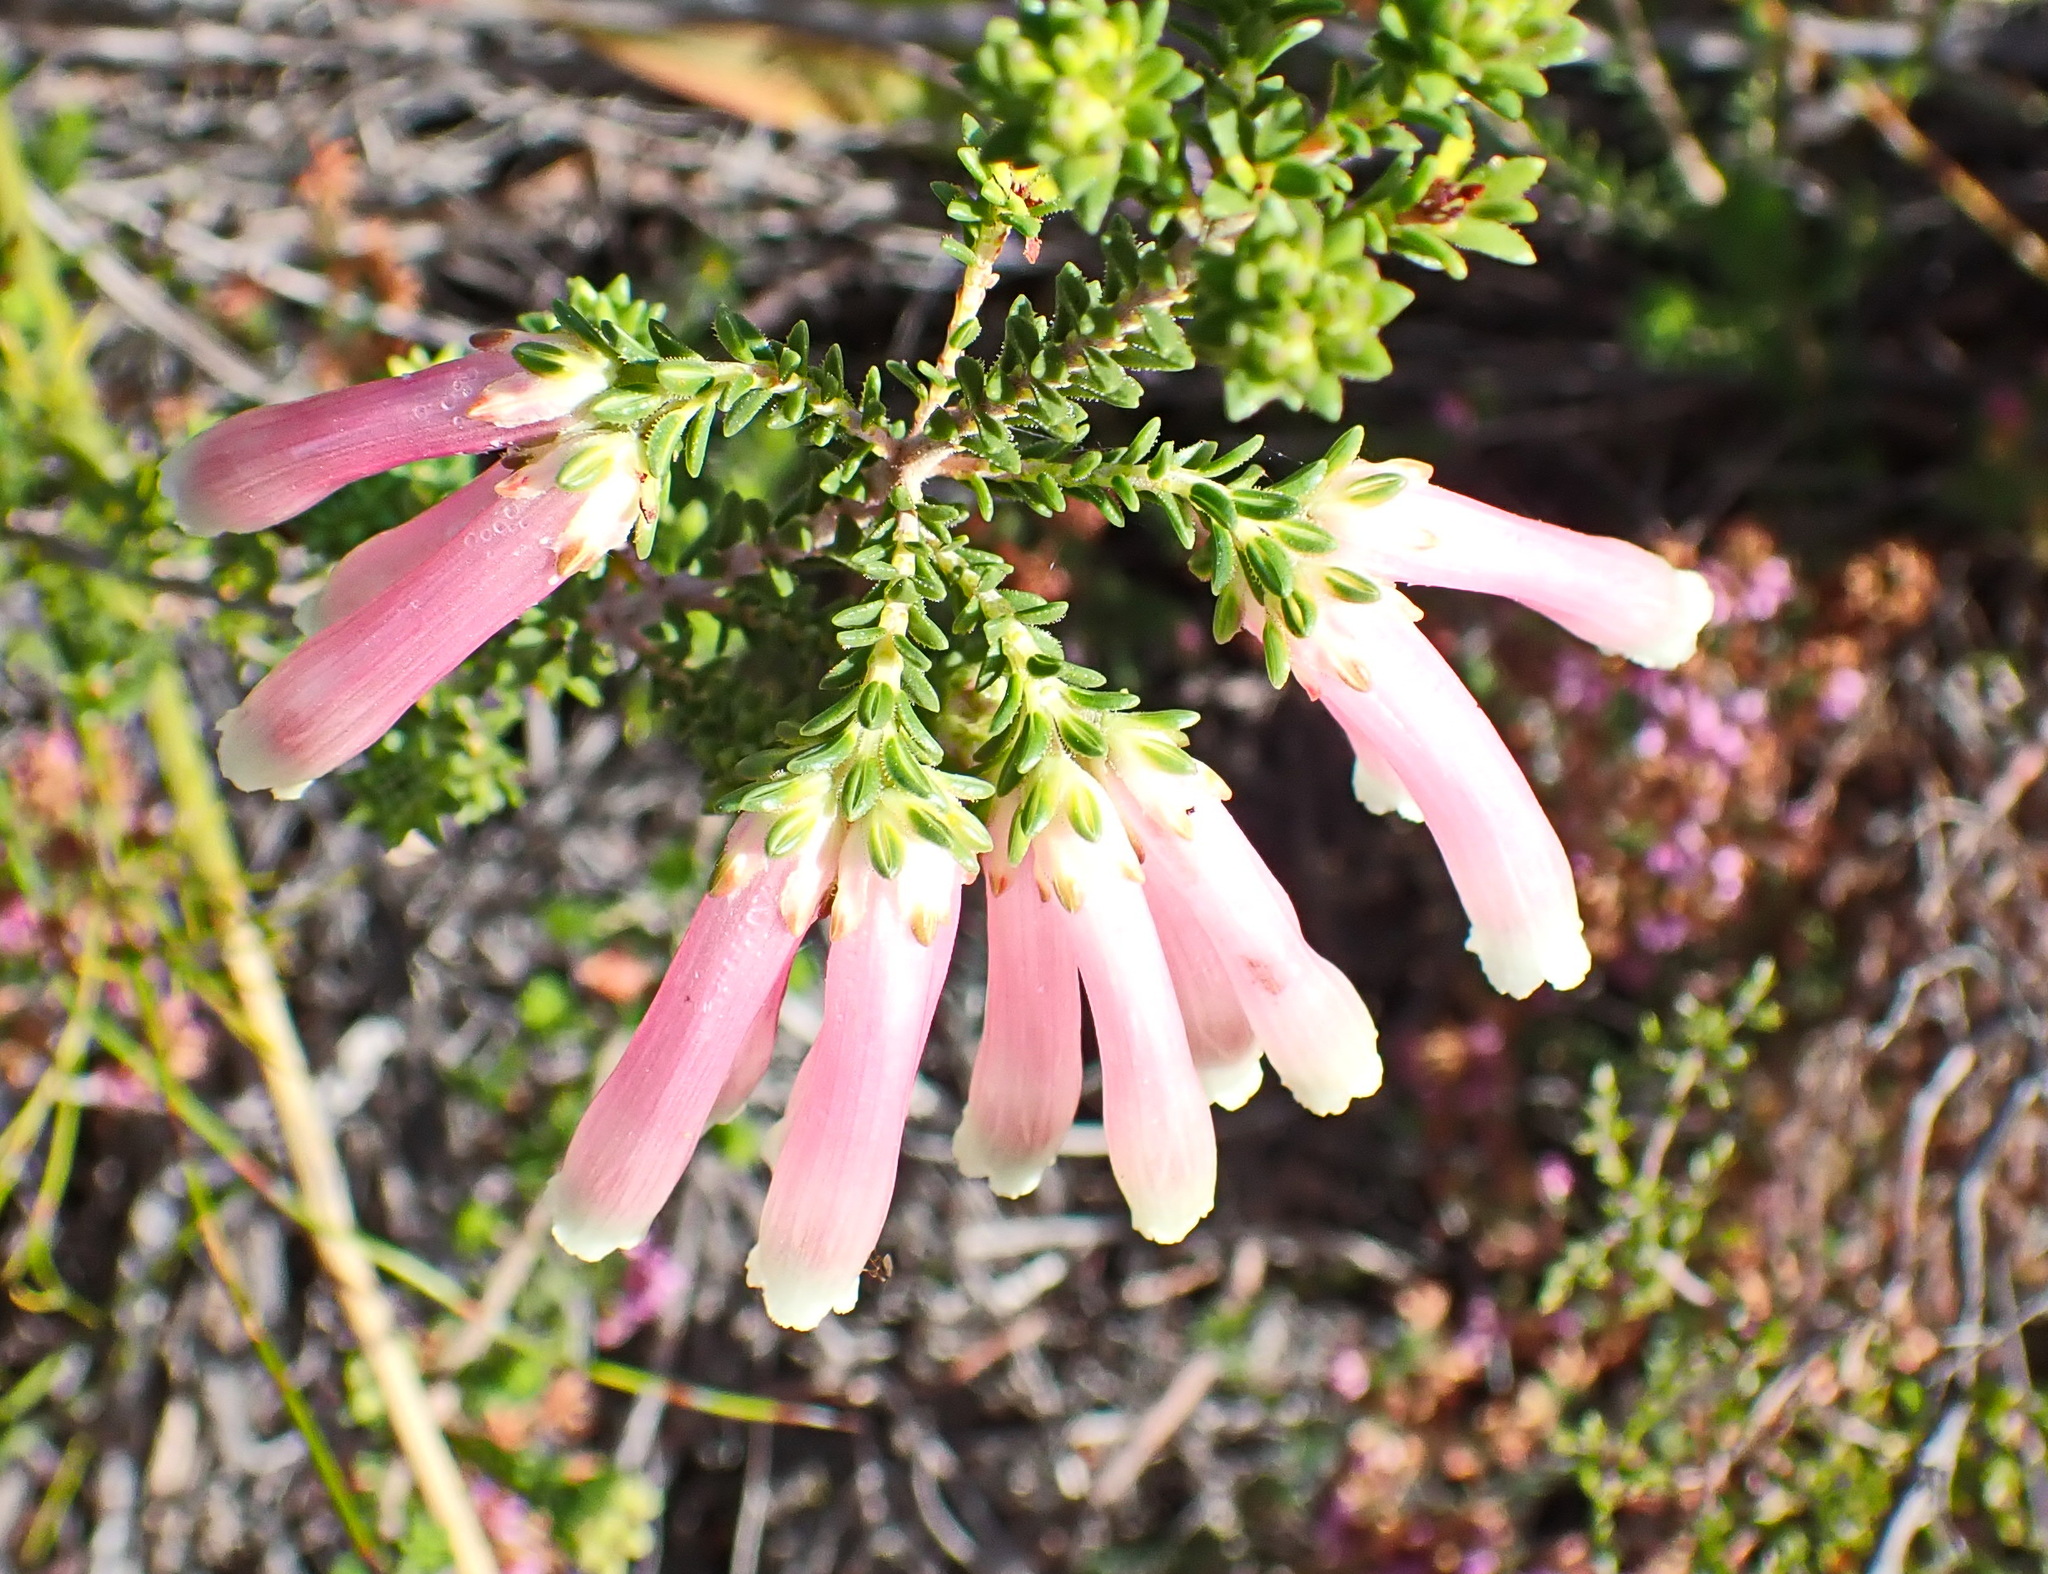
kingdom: Plantae
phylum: Tracheophyta
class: Magnoliopsida
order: Ericales
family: Ericaceae
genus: Erica
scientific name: Erica versicolor
